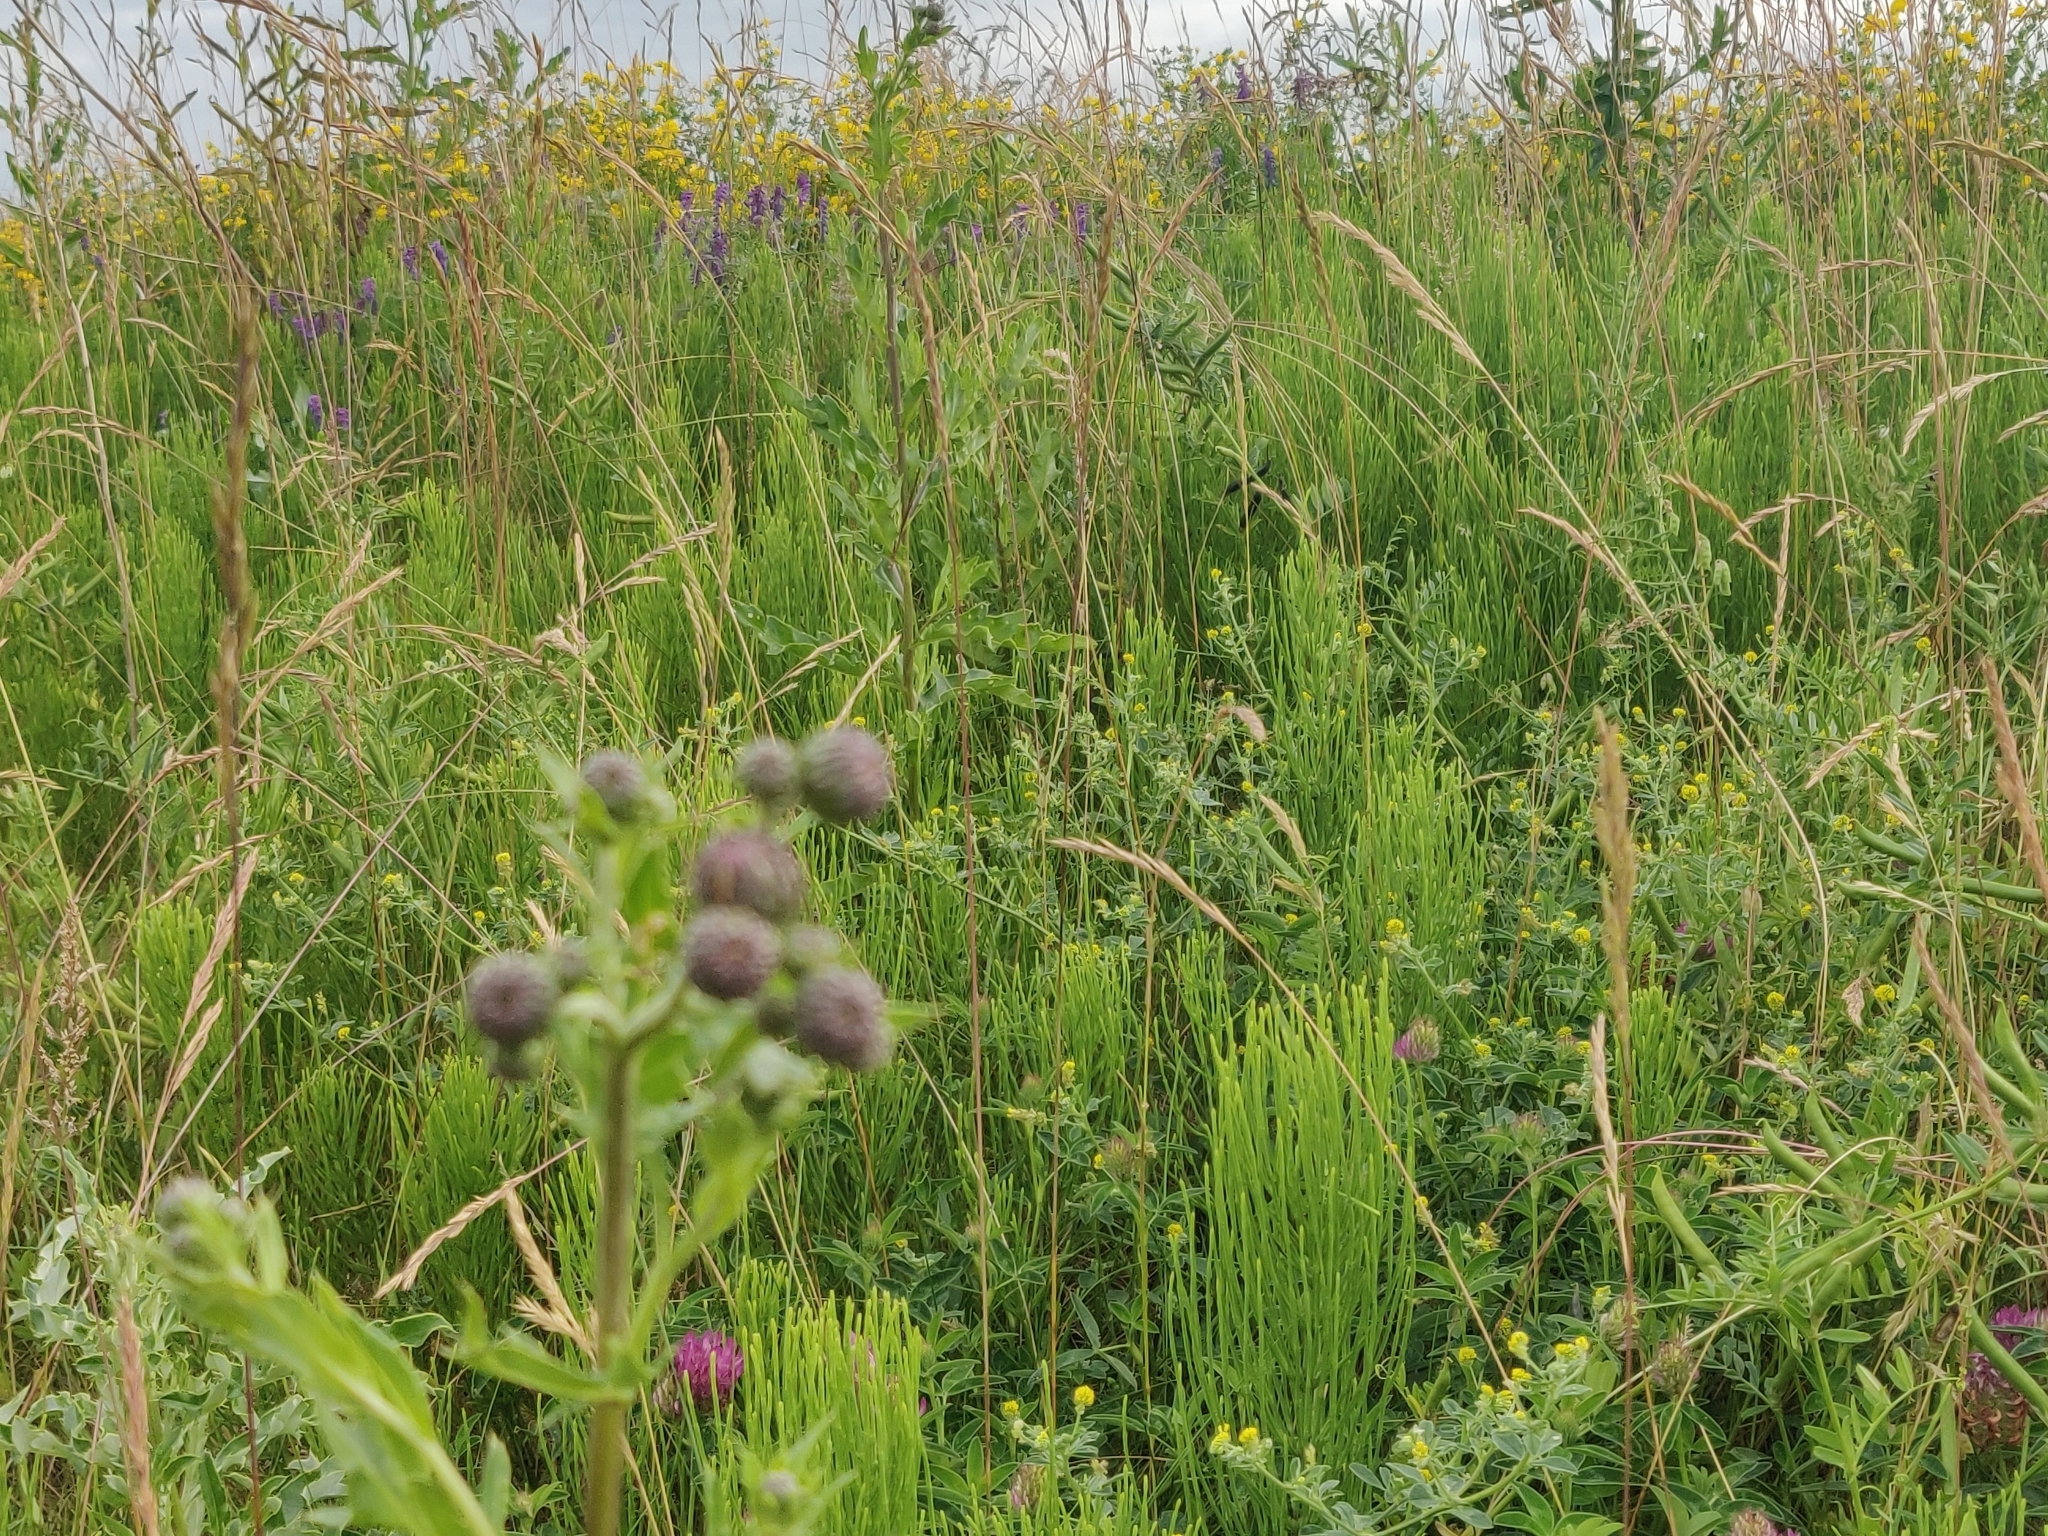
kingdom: Plantae
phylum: Tracheophyta
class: Magnoliopsida
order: Asterales
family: Asteraceae
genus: Cirsium
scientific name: Cirsium arvense
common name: Creeping thistle
